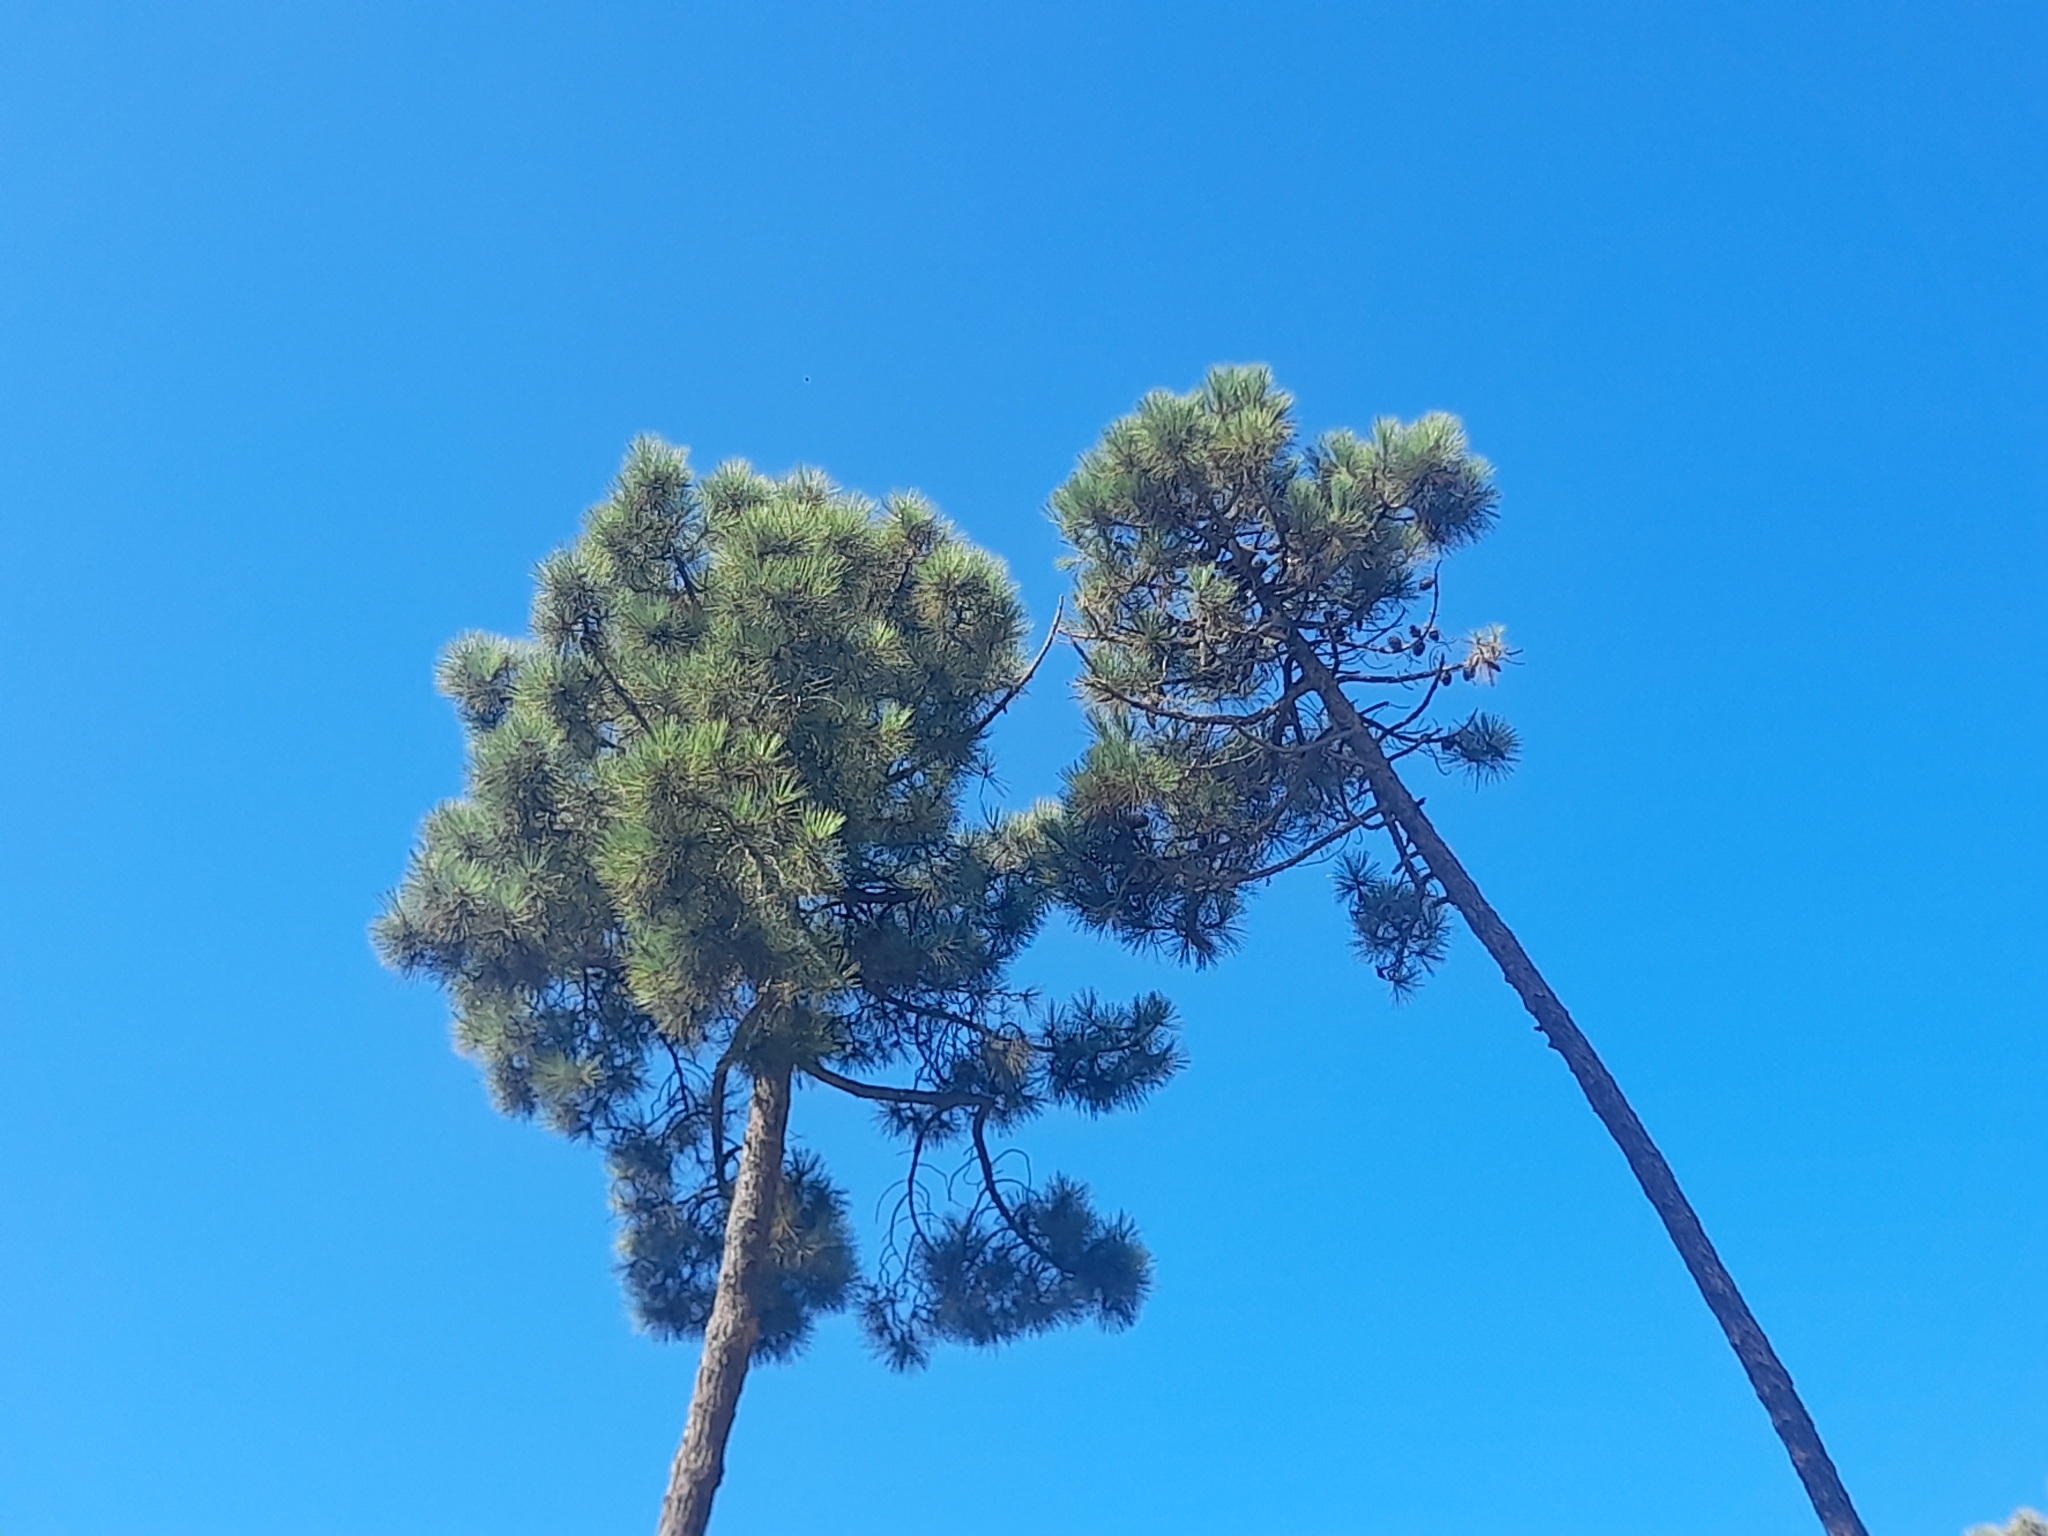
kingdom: Plantae
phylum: Tracheophyta
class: Pinopsida
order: Pinales
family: Pinaceae
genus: Pinus
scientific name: Pinus pinaster
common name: Maritime pine
